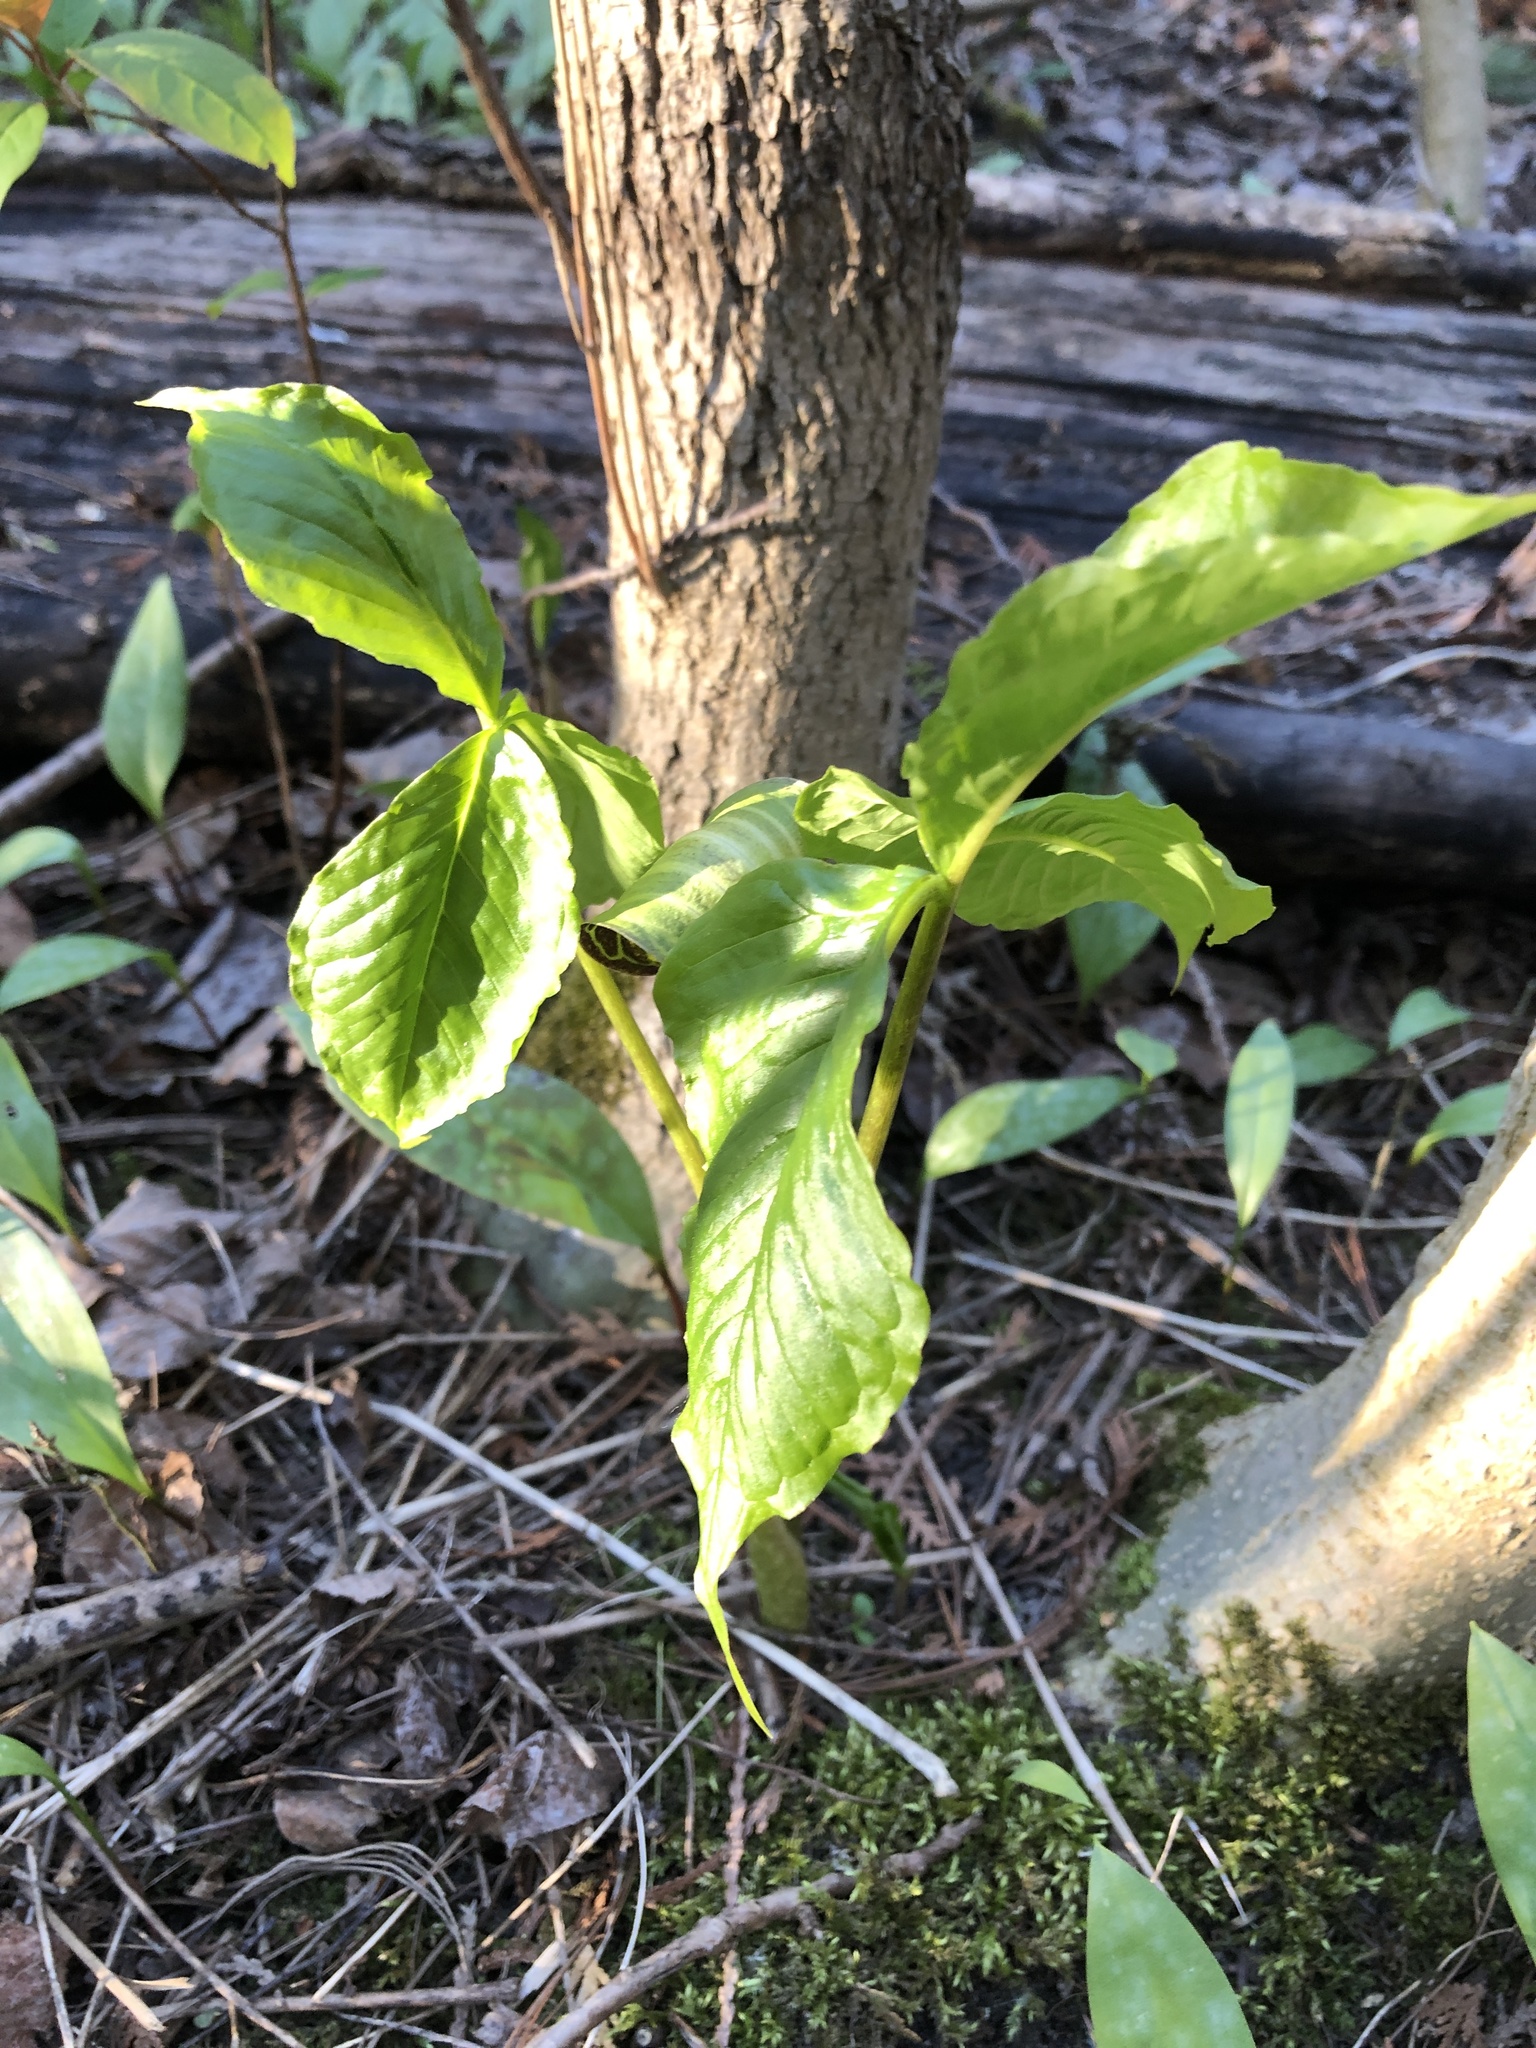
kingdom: Plantae
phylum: Tracheophyta
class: Liliopsida
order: Alismatales
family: Araceae
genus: Arisaema
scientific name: Arisaema triphyllum
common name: Jack-in-the-pulpit
